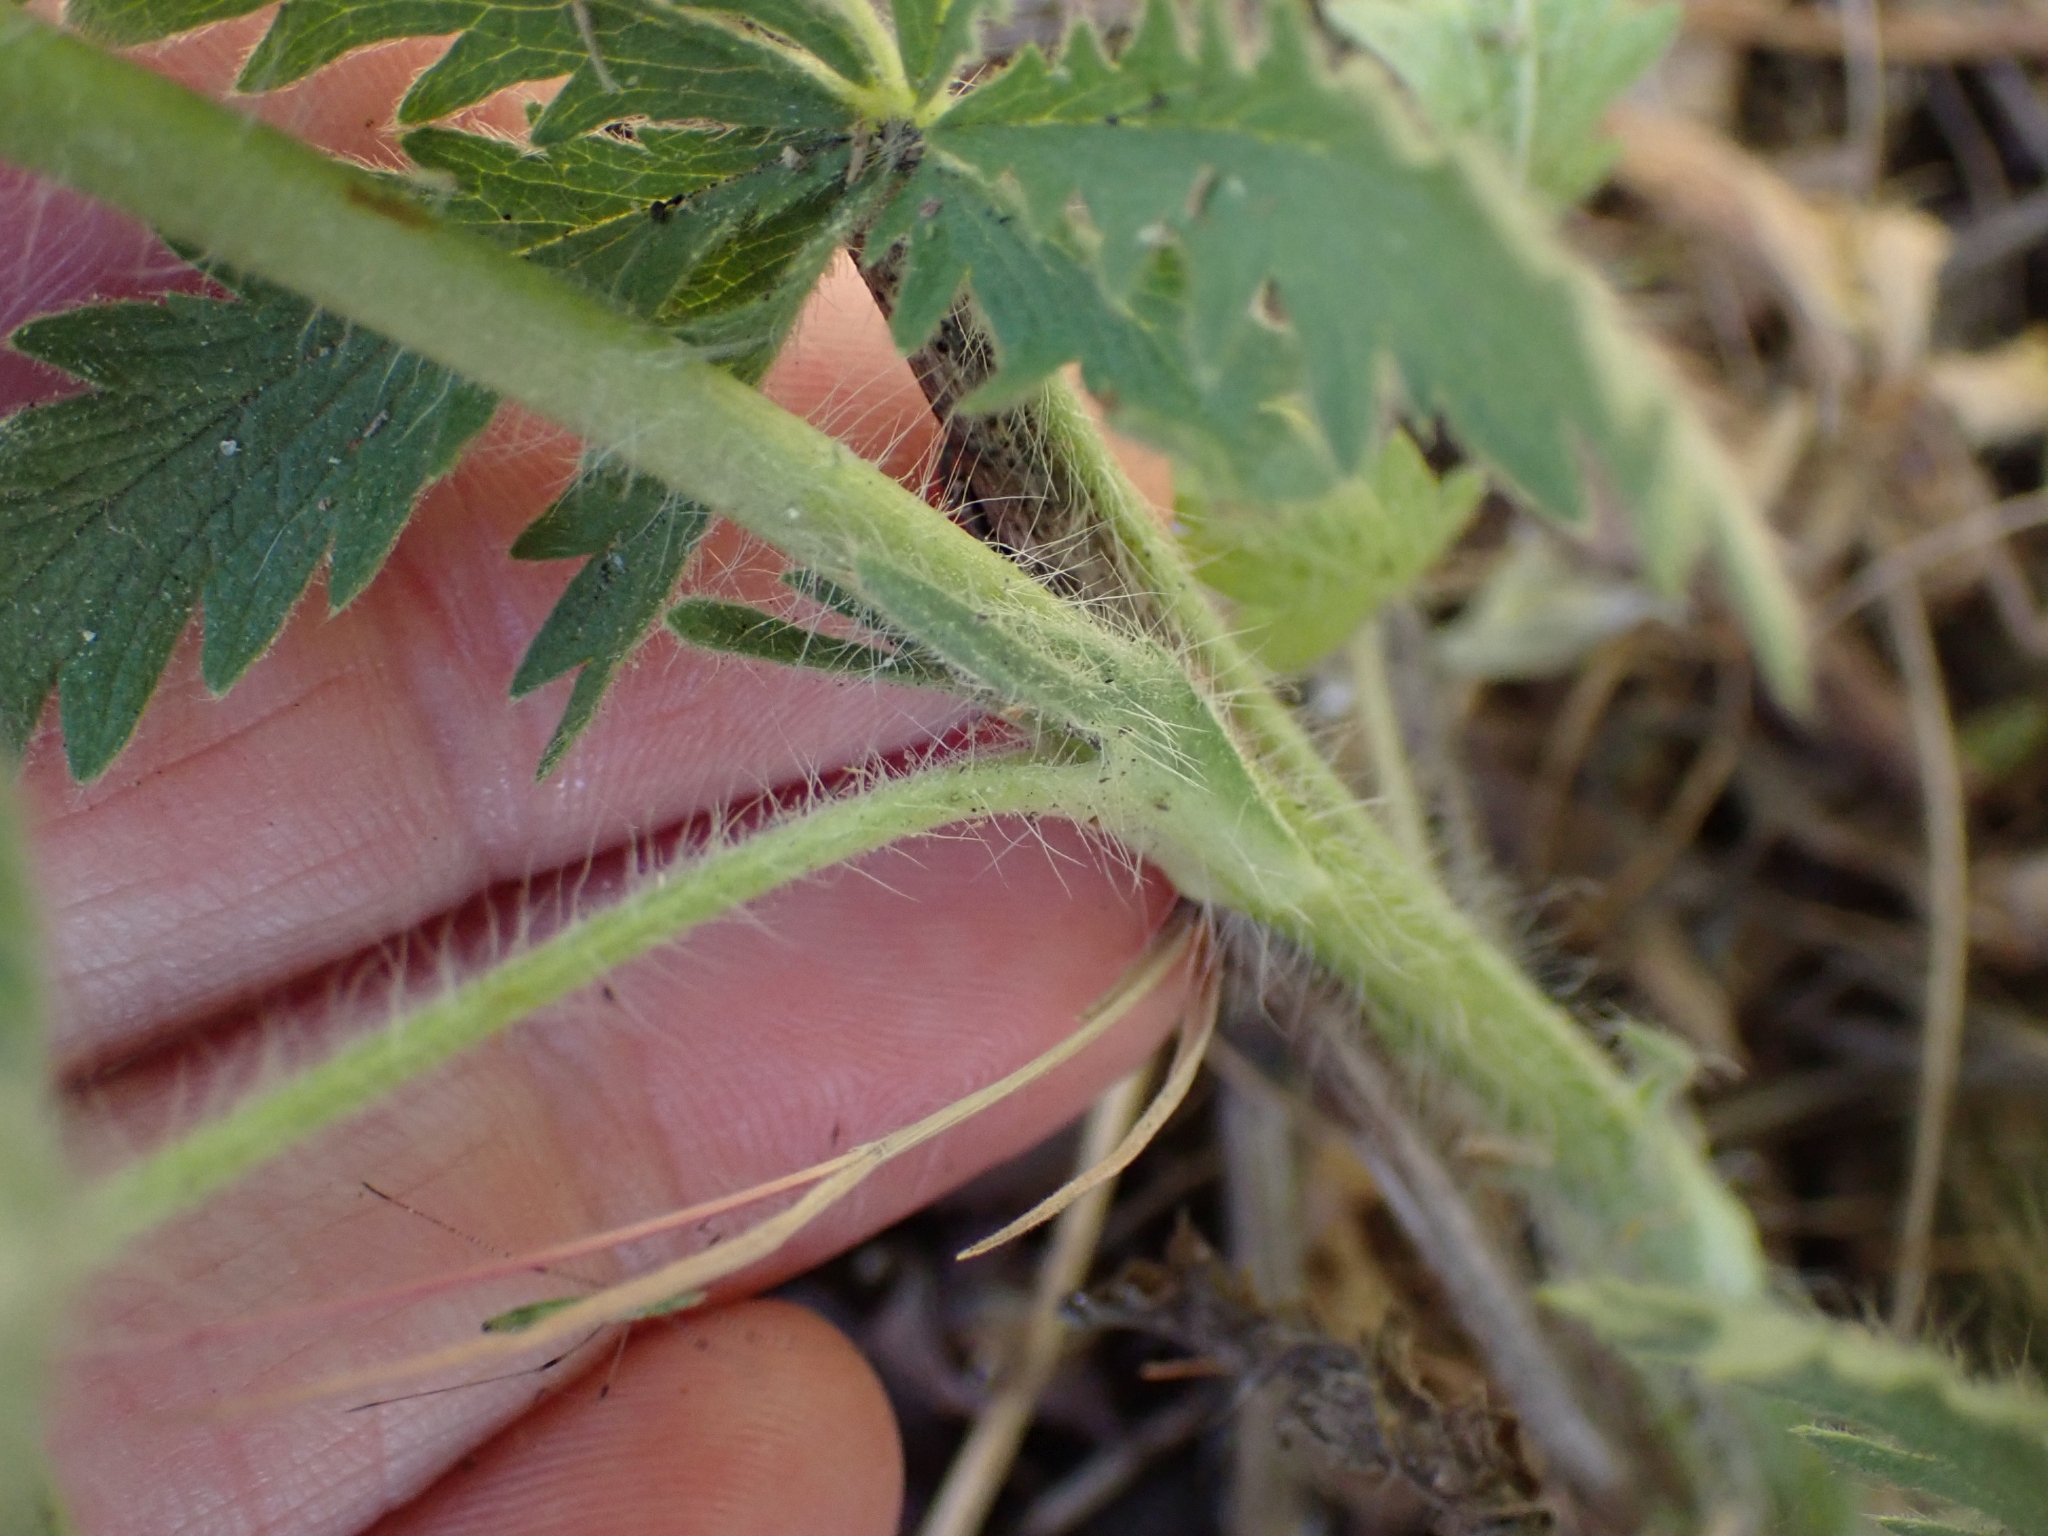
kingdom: Plantae
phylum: Tracheophyta
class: Magnoliopsida
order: Rosales
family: Rosaceae
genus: Potentilla
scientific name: Potentilla recta
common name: Sulphur cinquefoil
